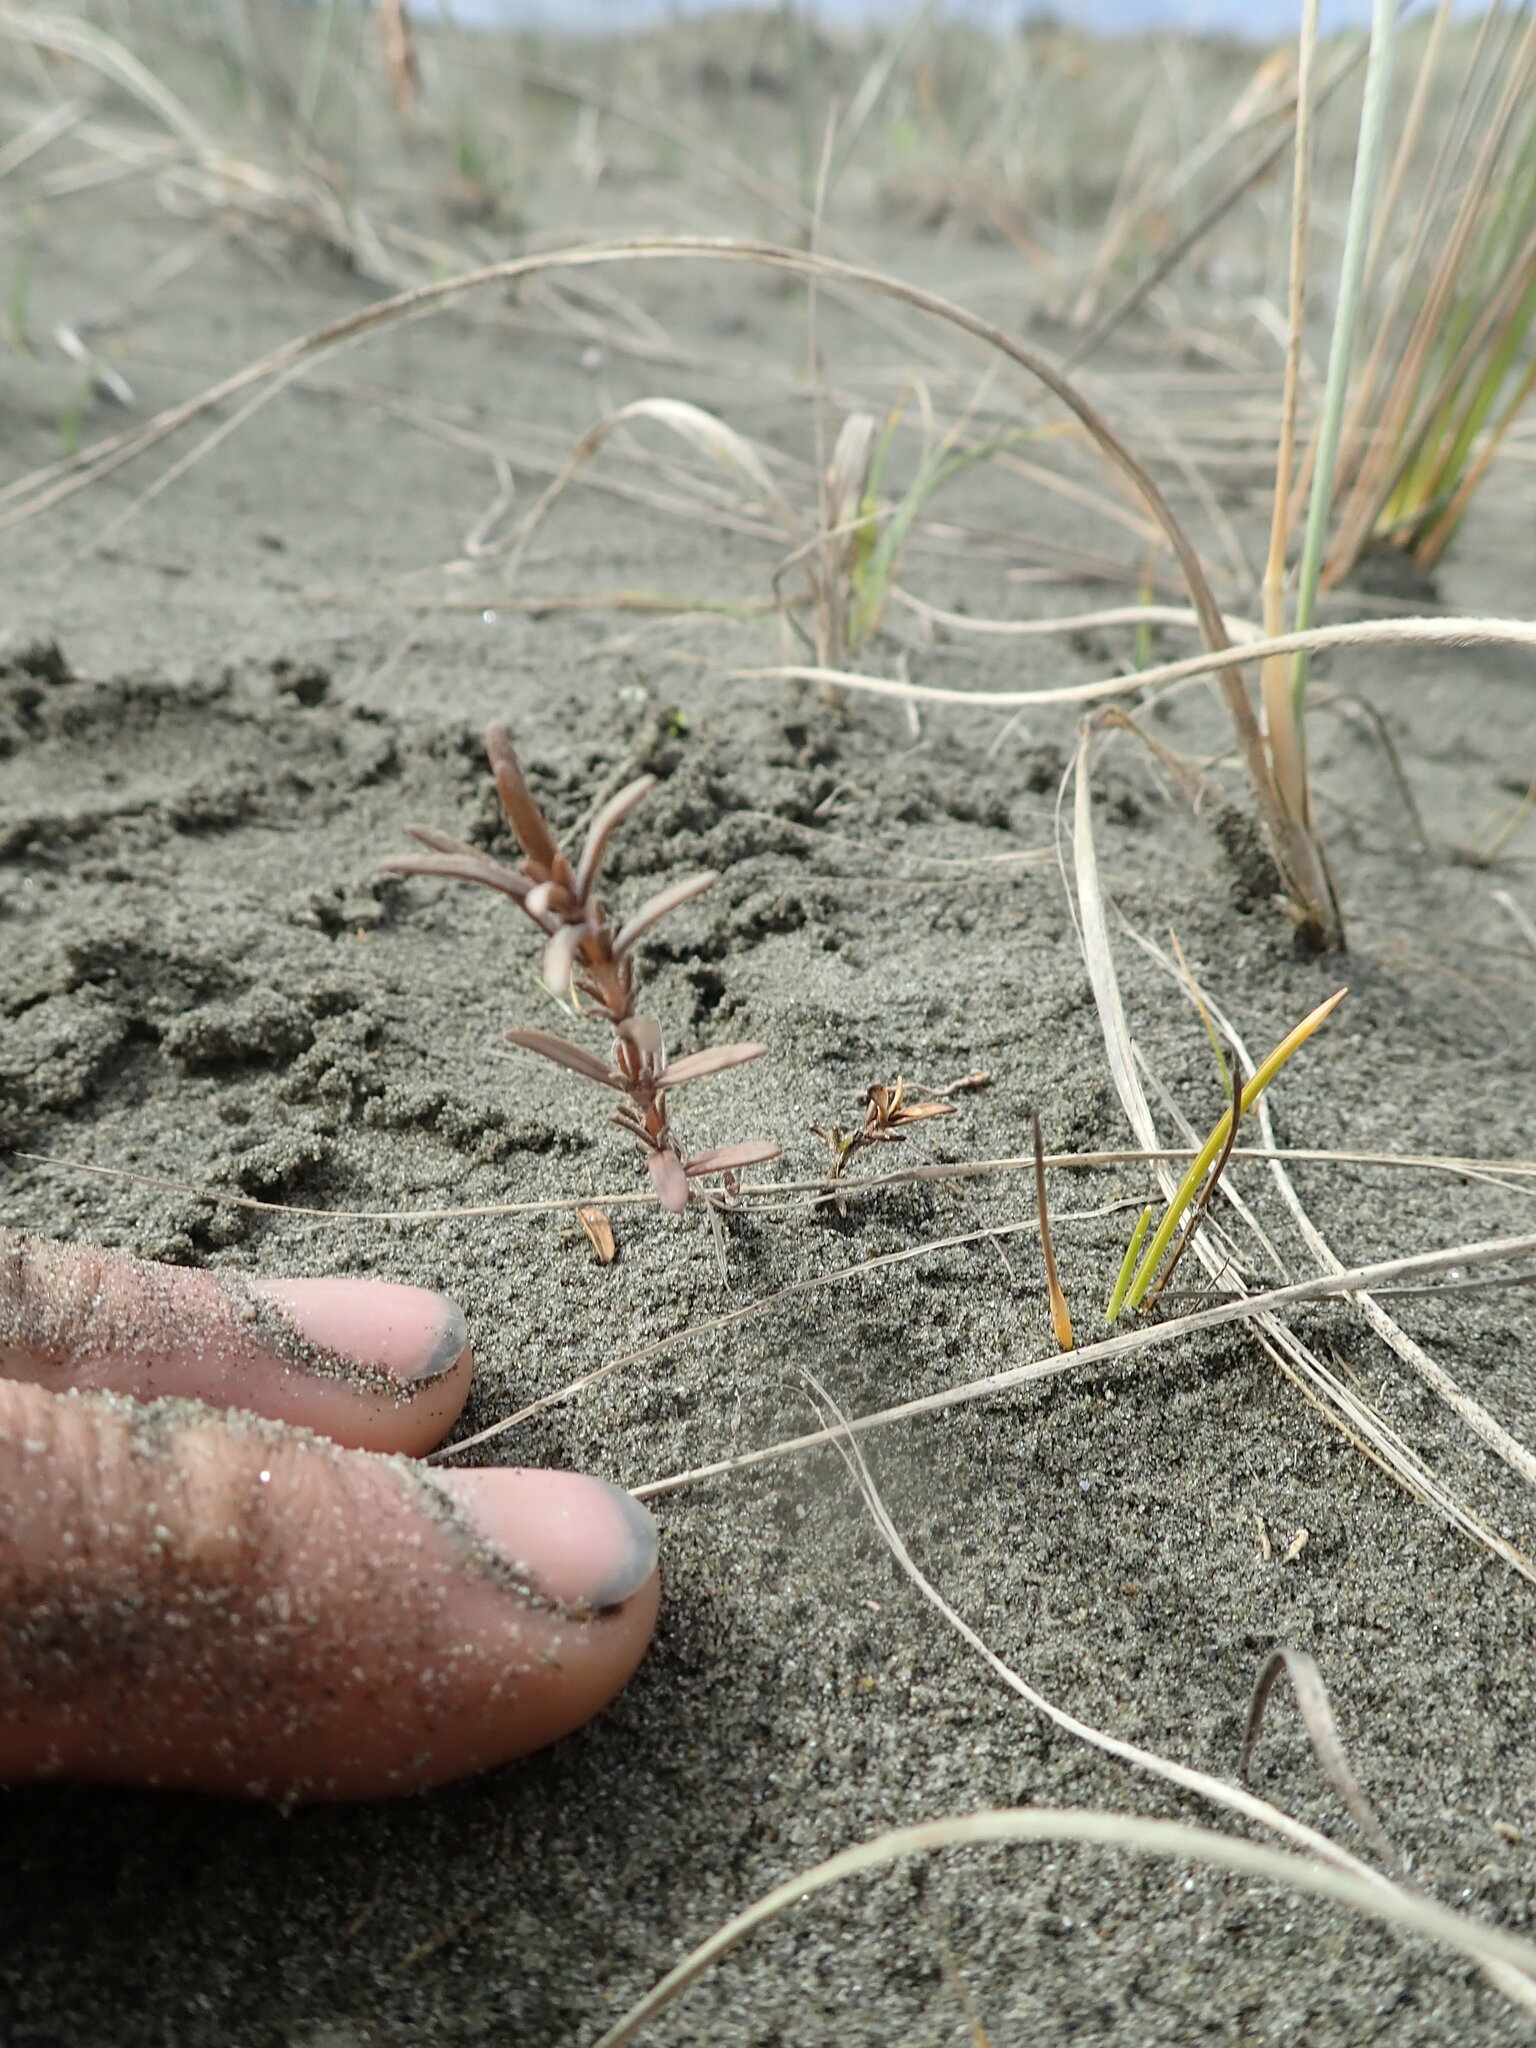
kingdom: Plantae
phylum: Tracheophyta
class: Magnoliopsida
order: Gentianales
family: Rubiaceae
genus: Coprosma
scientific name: Coprosma acerosa
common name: Sand coprosma
